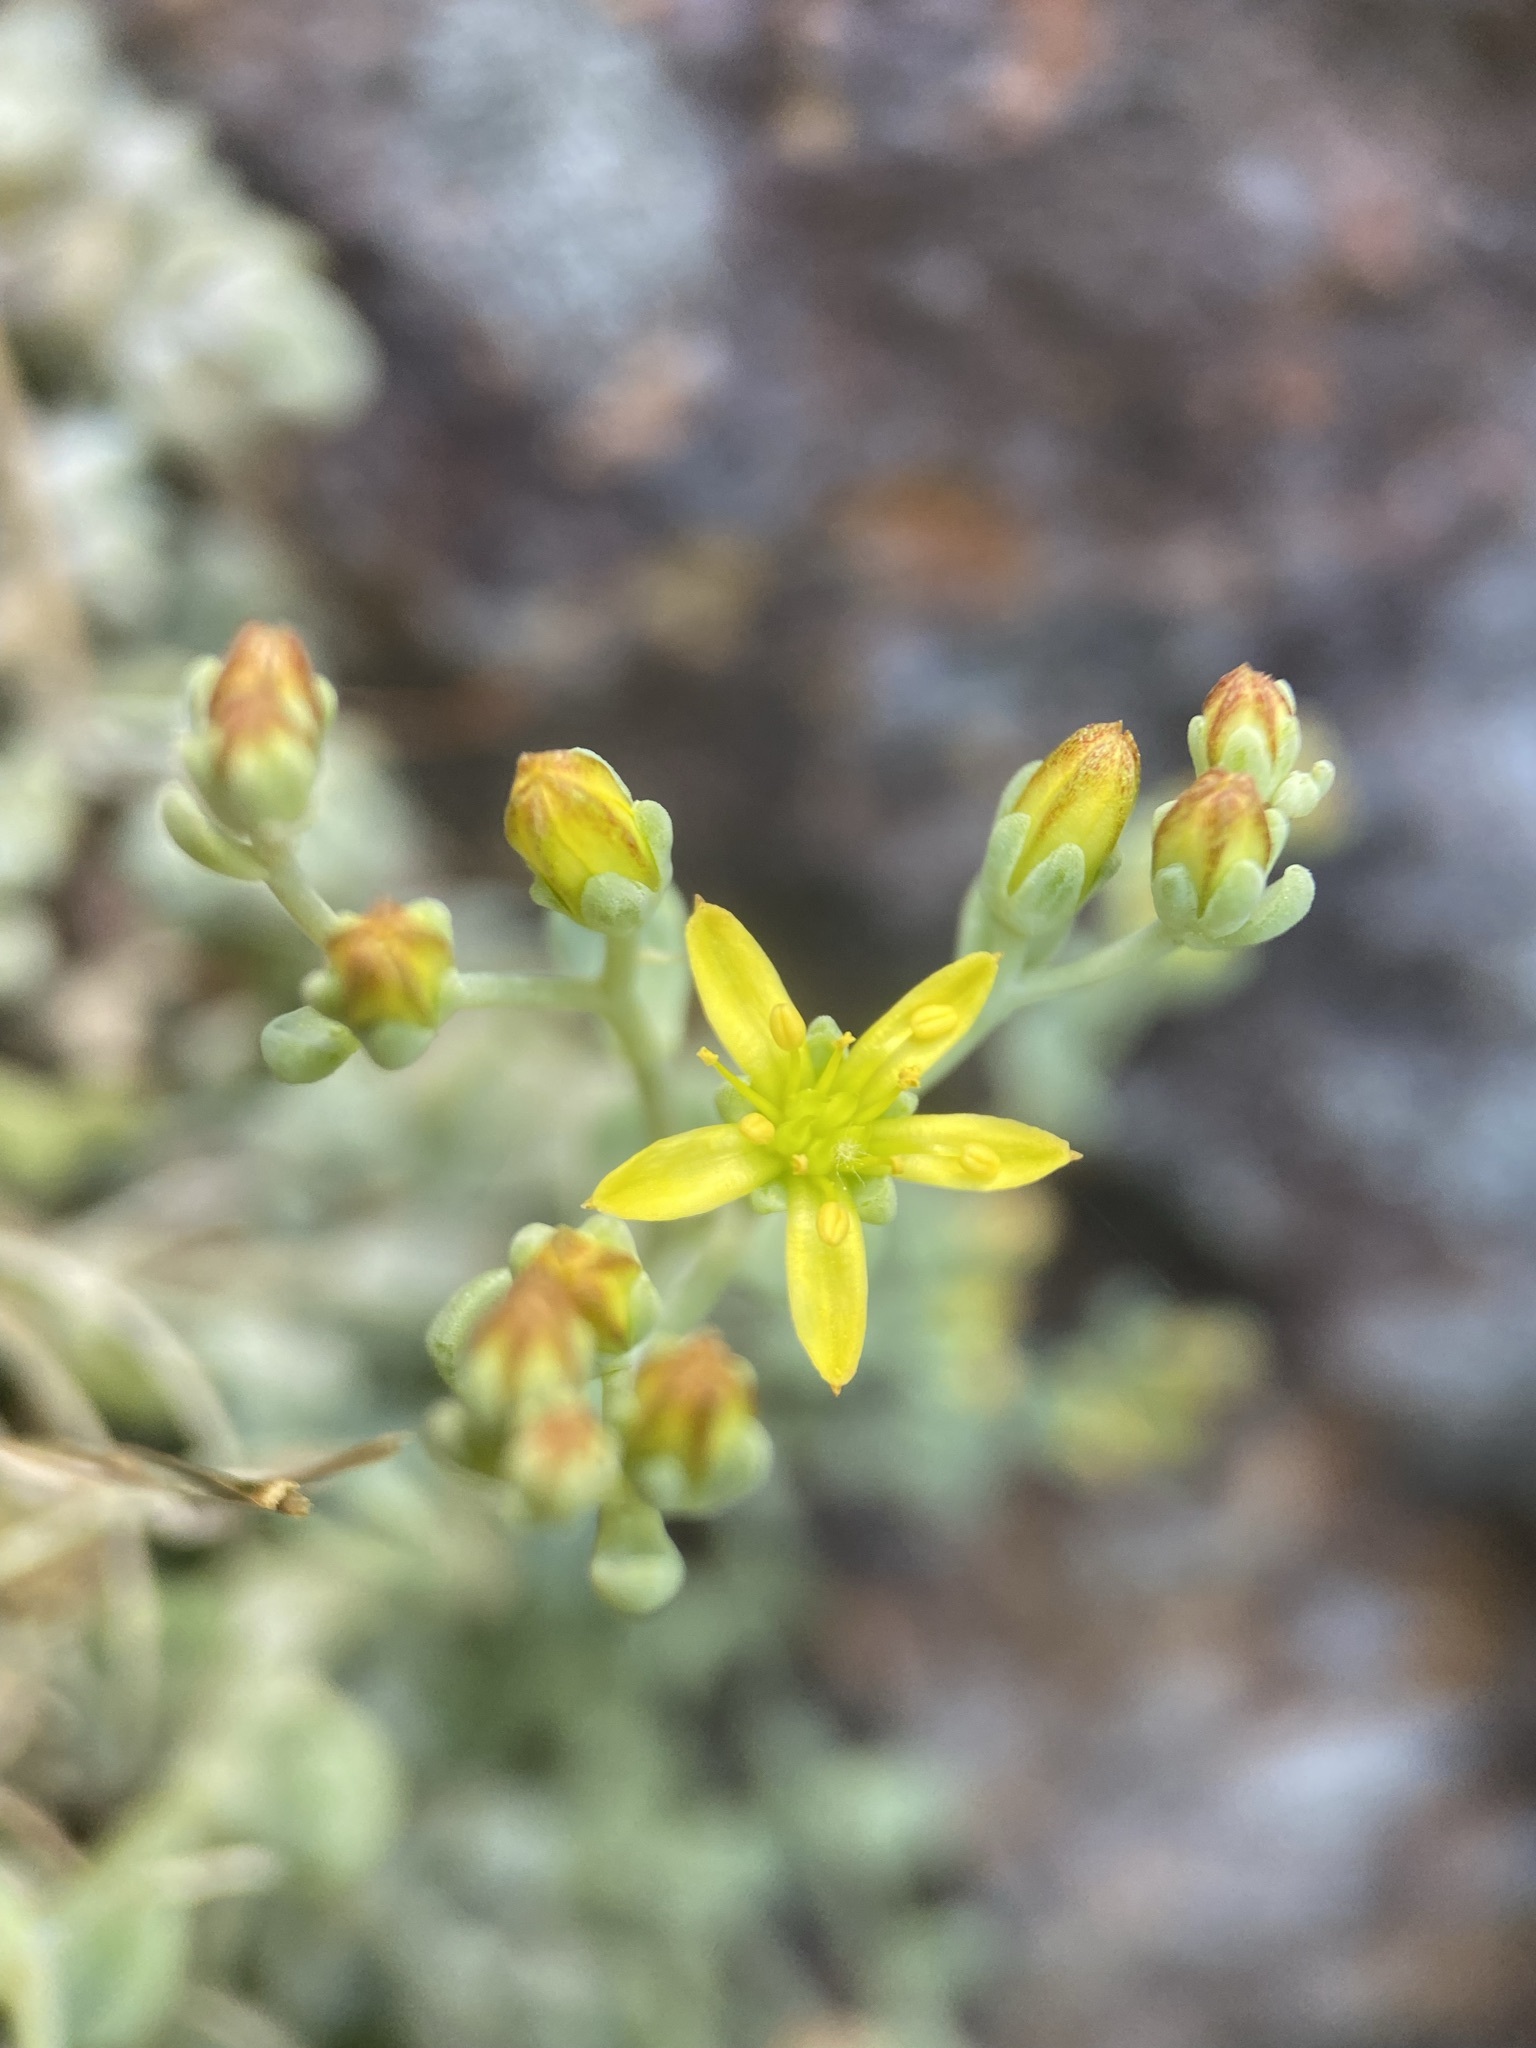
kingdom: Plantae
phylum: Tracheophyta
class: Magnoliopsida
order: Saxifragales
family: Crassulaceae
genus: Sedum
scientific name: Sedum debile
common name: Weak-stem stonecrop
